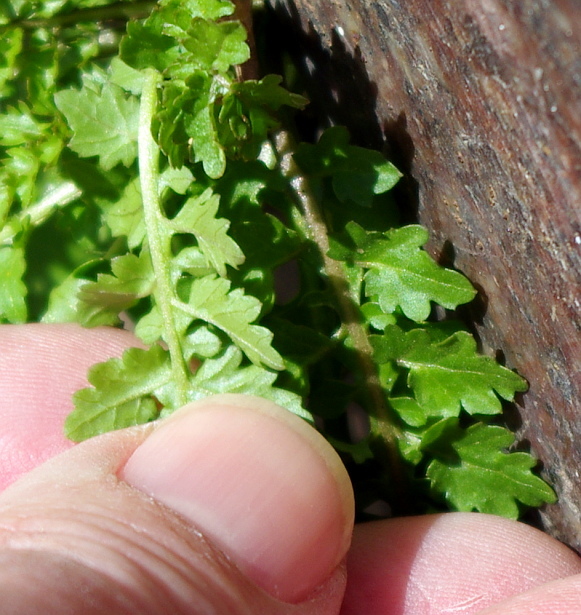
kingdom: Plantae
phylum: Tracheophyta
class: Magnoliopsida
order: Brassicales
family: Brassicaceae
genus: Rorippa
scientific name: Rorippa palustris
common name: Marsh yellow-cress
